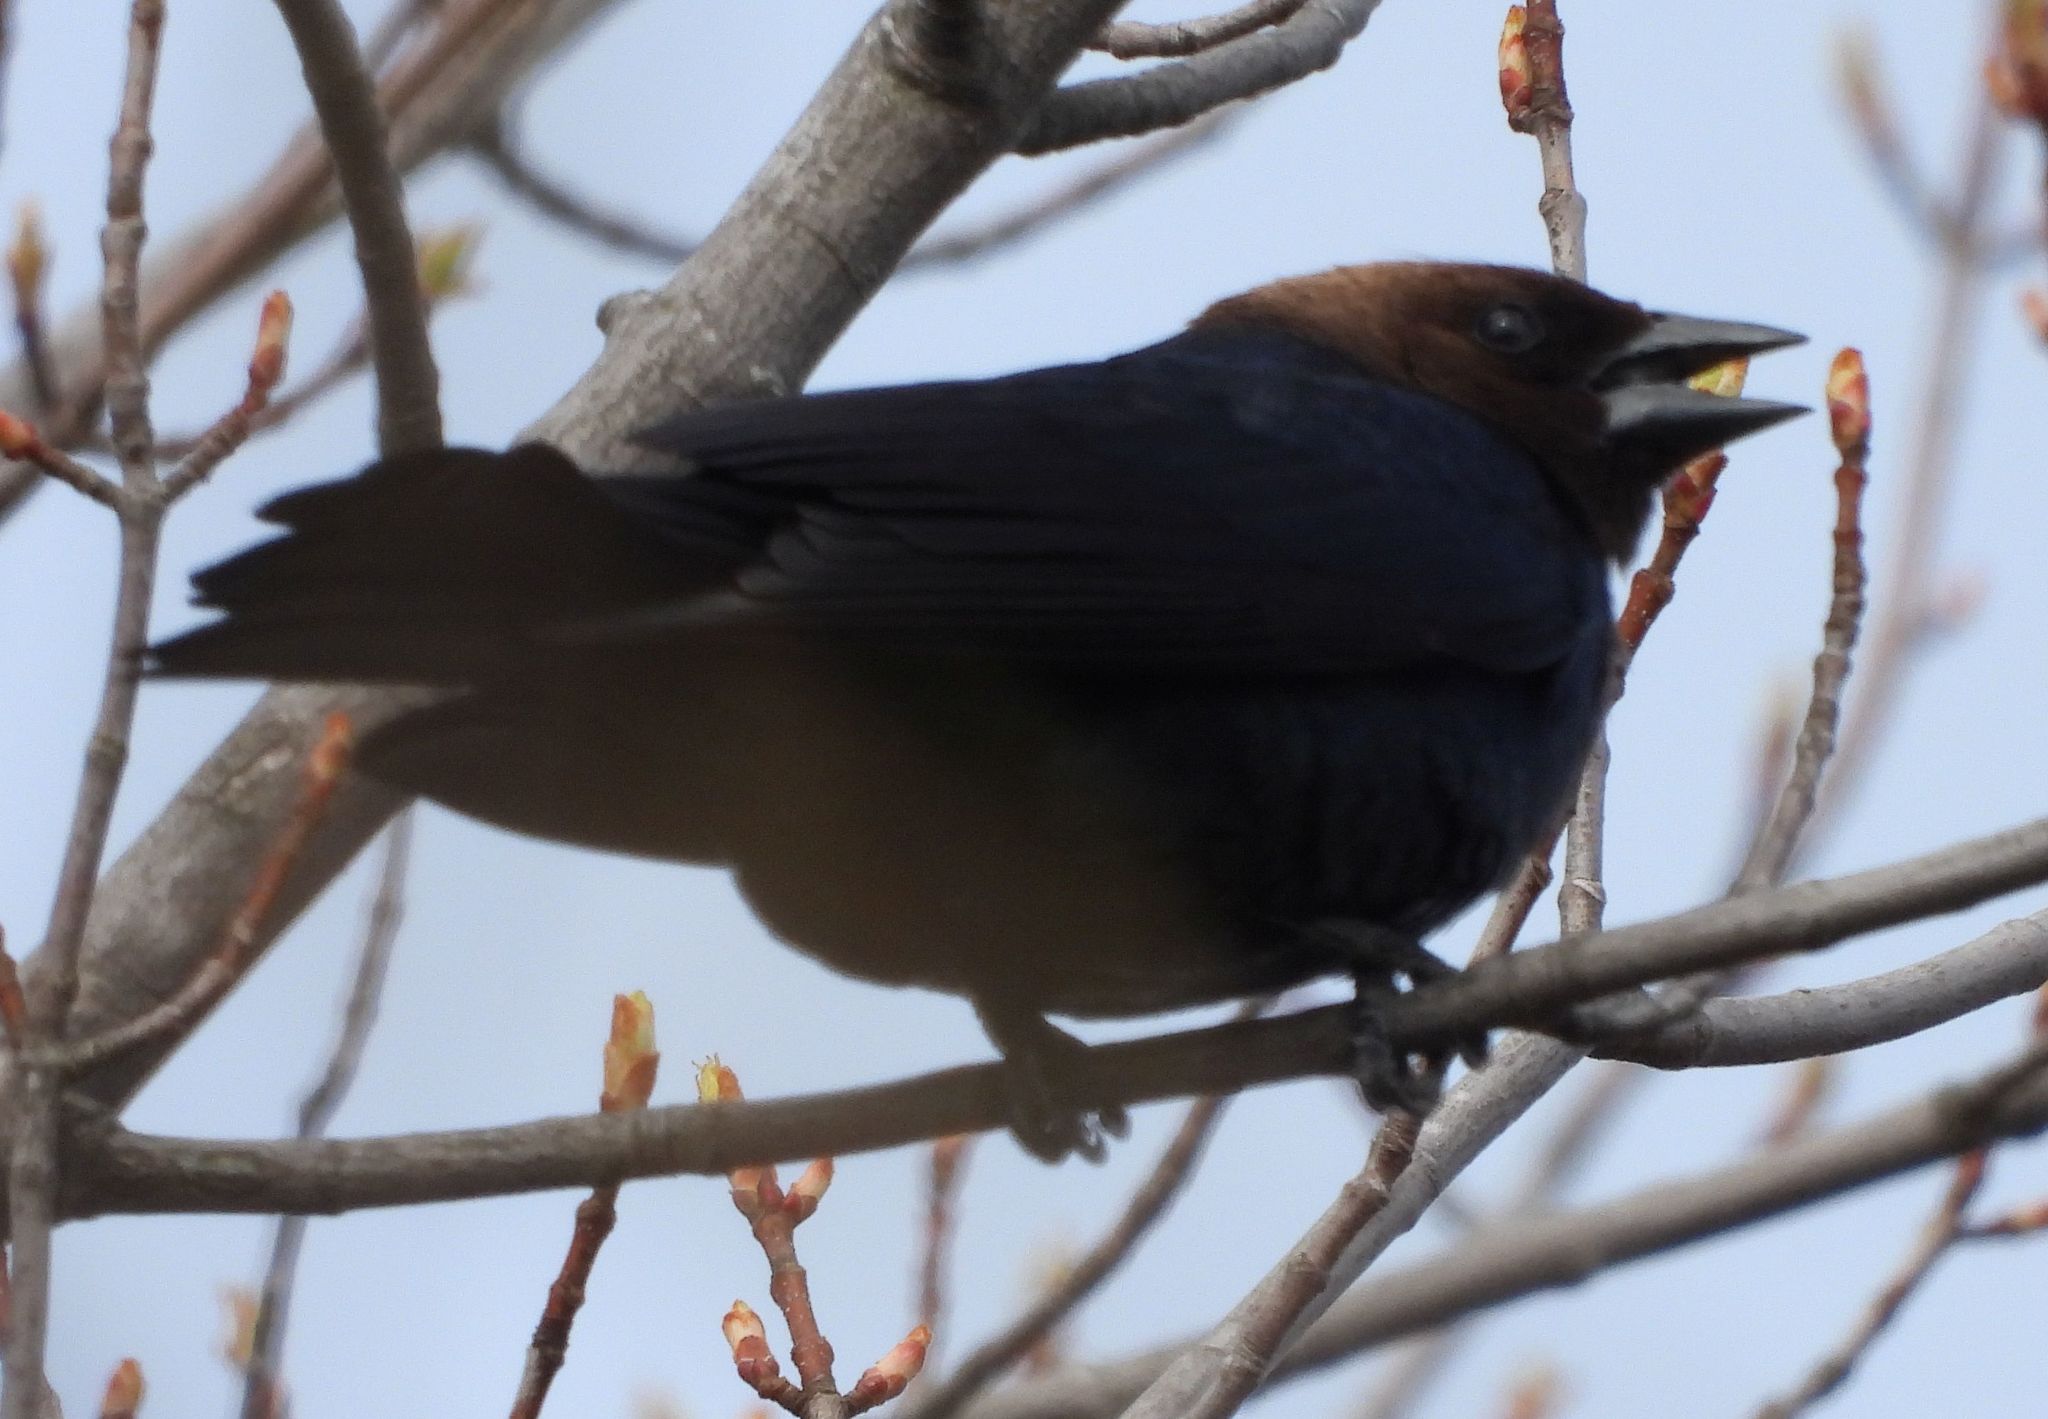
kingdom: Animalia
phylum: Chordata
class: Aves
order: Passeriformes
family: Icteridae
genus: Molothrus
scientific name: Molothrus ater
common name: Brown-headed cowbird
